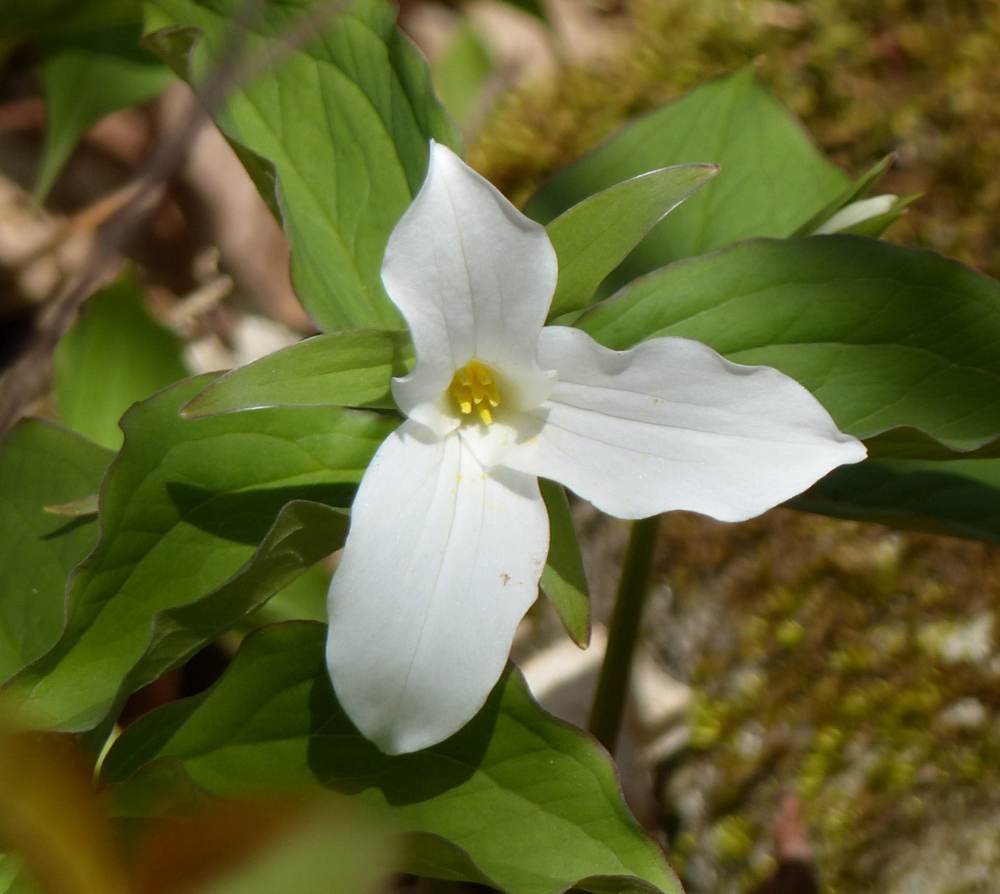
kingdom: Plantae
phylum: Tracheophyta
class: Liliopsida
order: Liliales
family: Melanthiaceae
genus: Trillium
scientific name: Trillium grandiflorum
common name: Great white trillium
